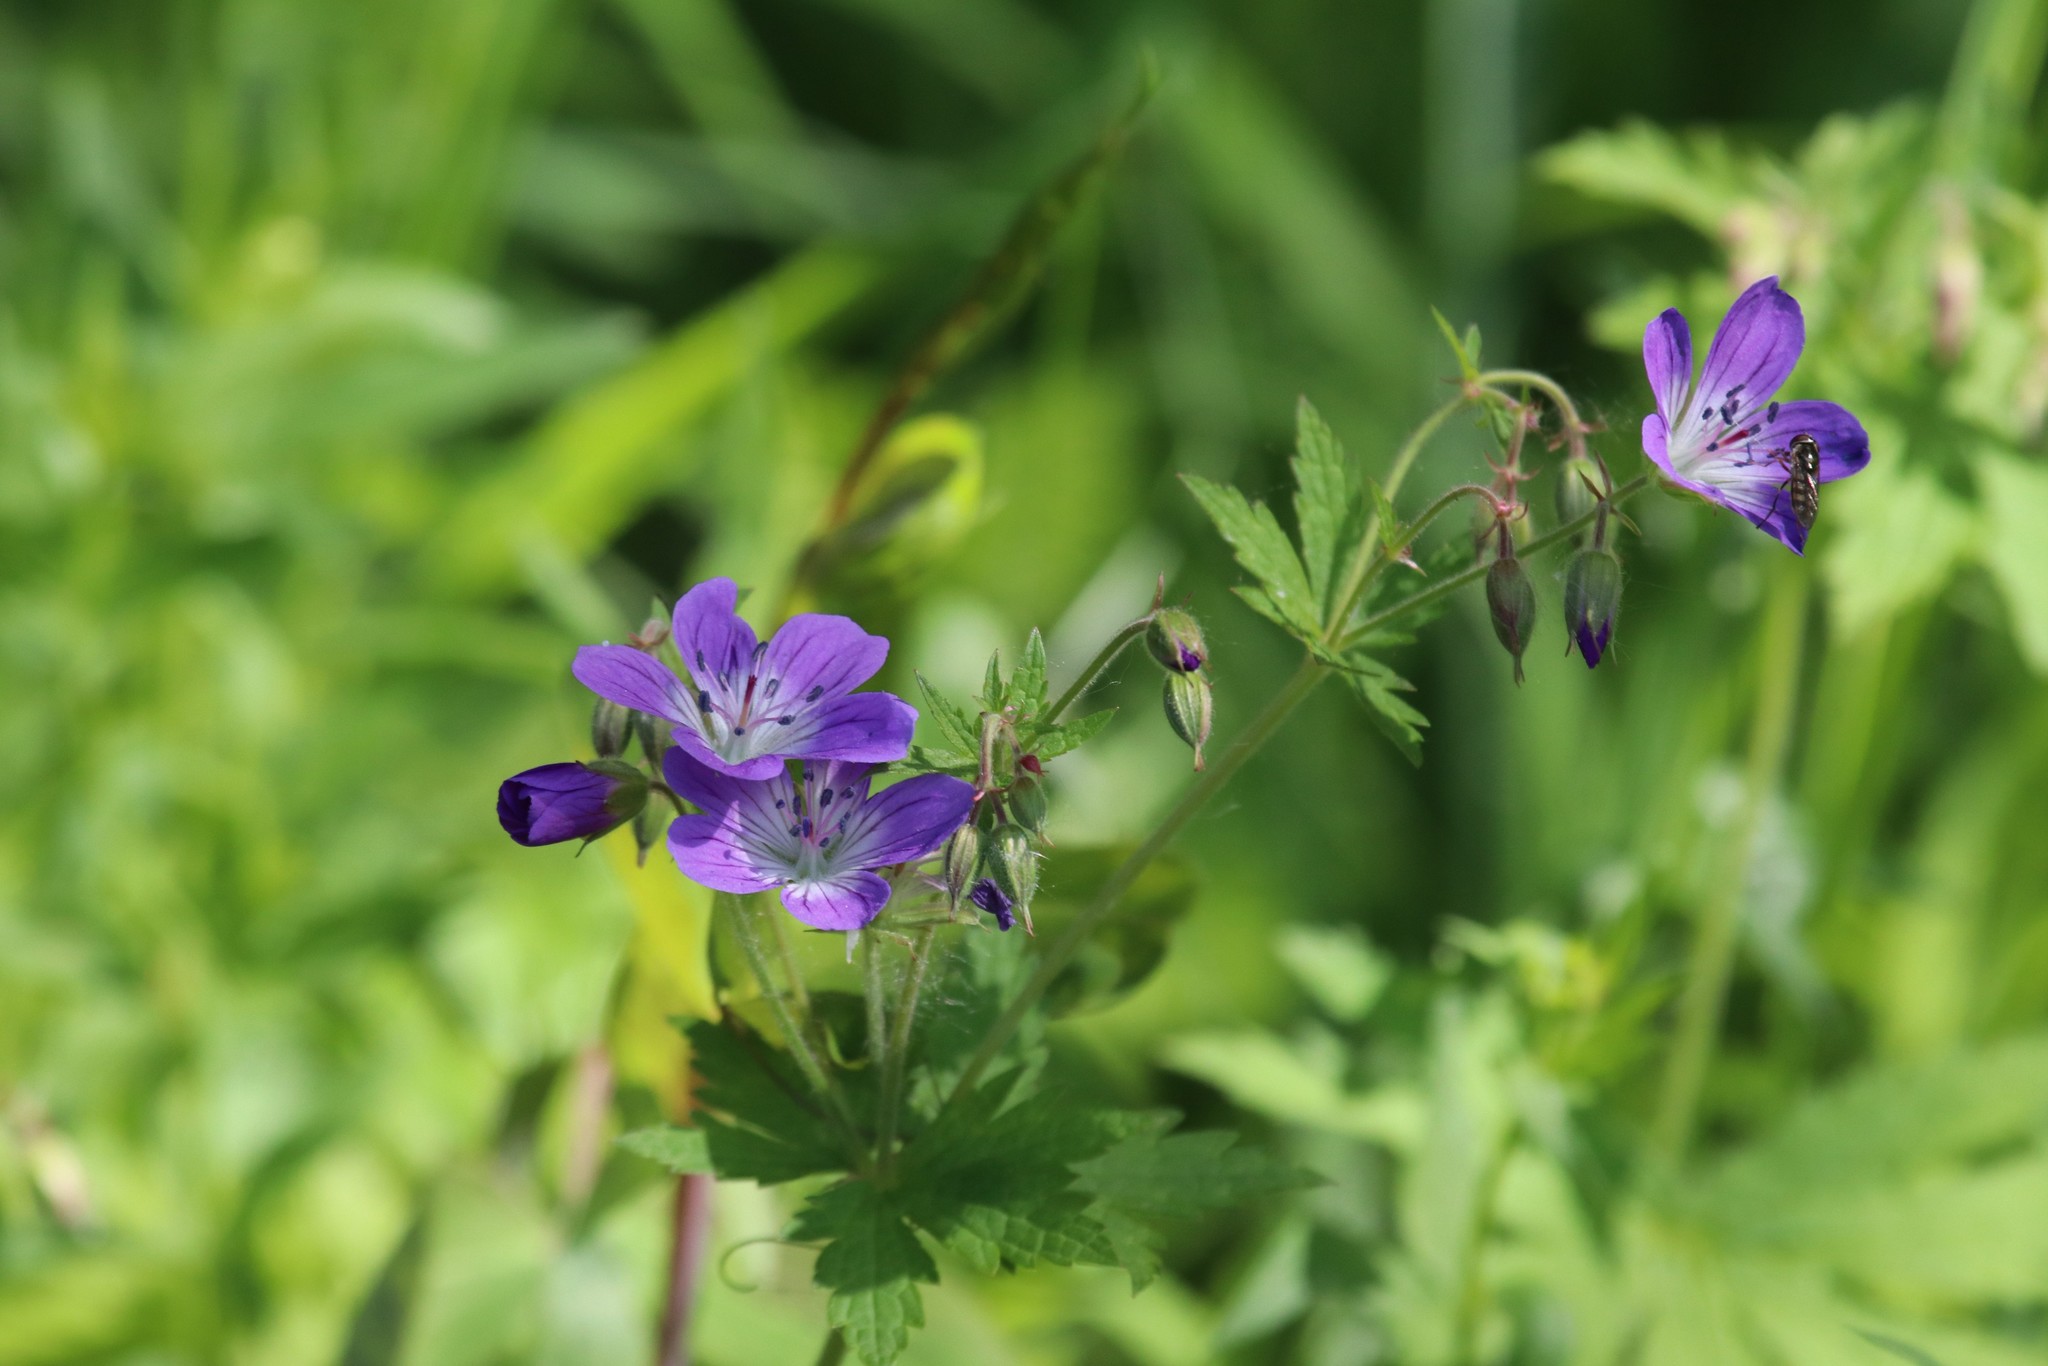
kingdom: Plantae
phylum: Tracheophyta
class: Magnoliopsida
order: Geraniales
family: Geraniaceae
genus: Geranium
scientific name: Geranium sylvaticum
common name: Wood crane's-bill
